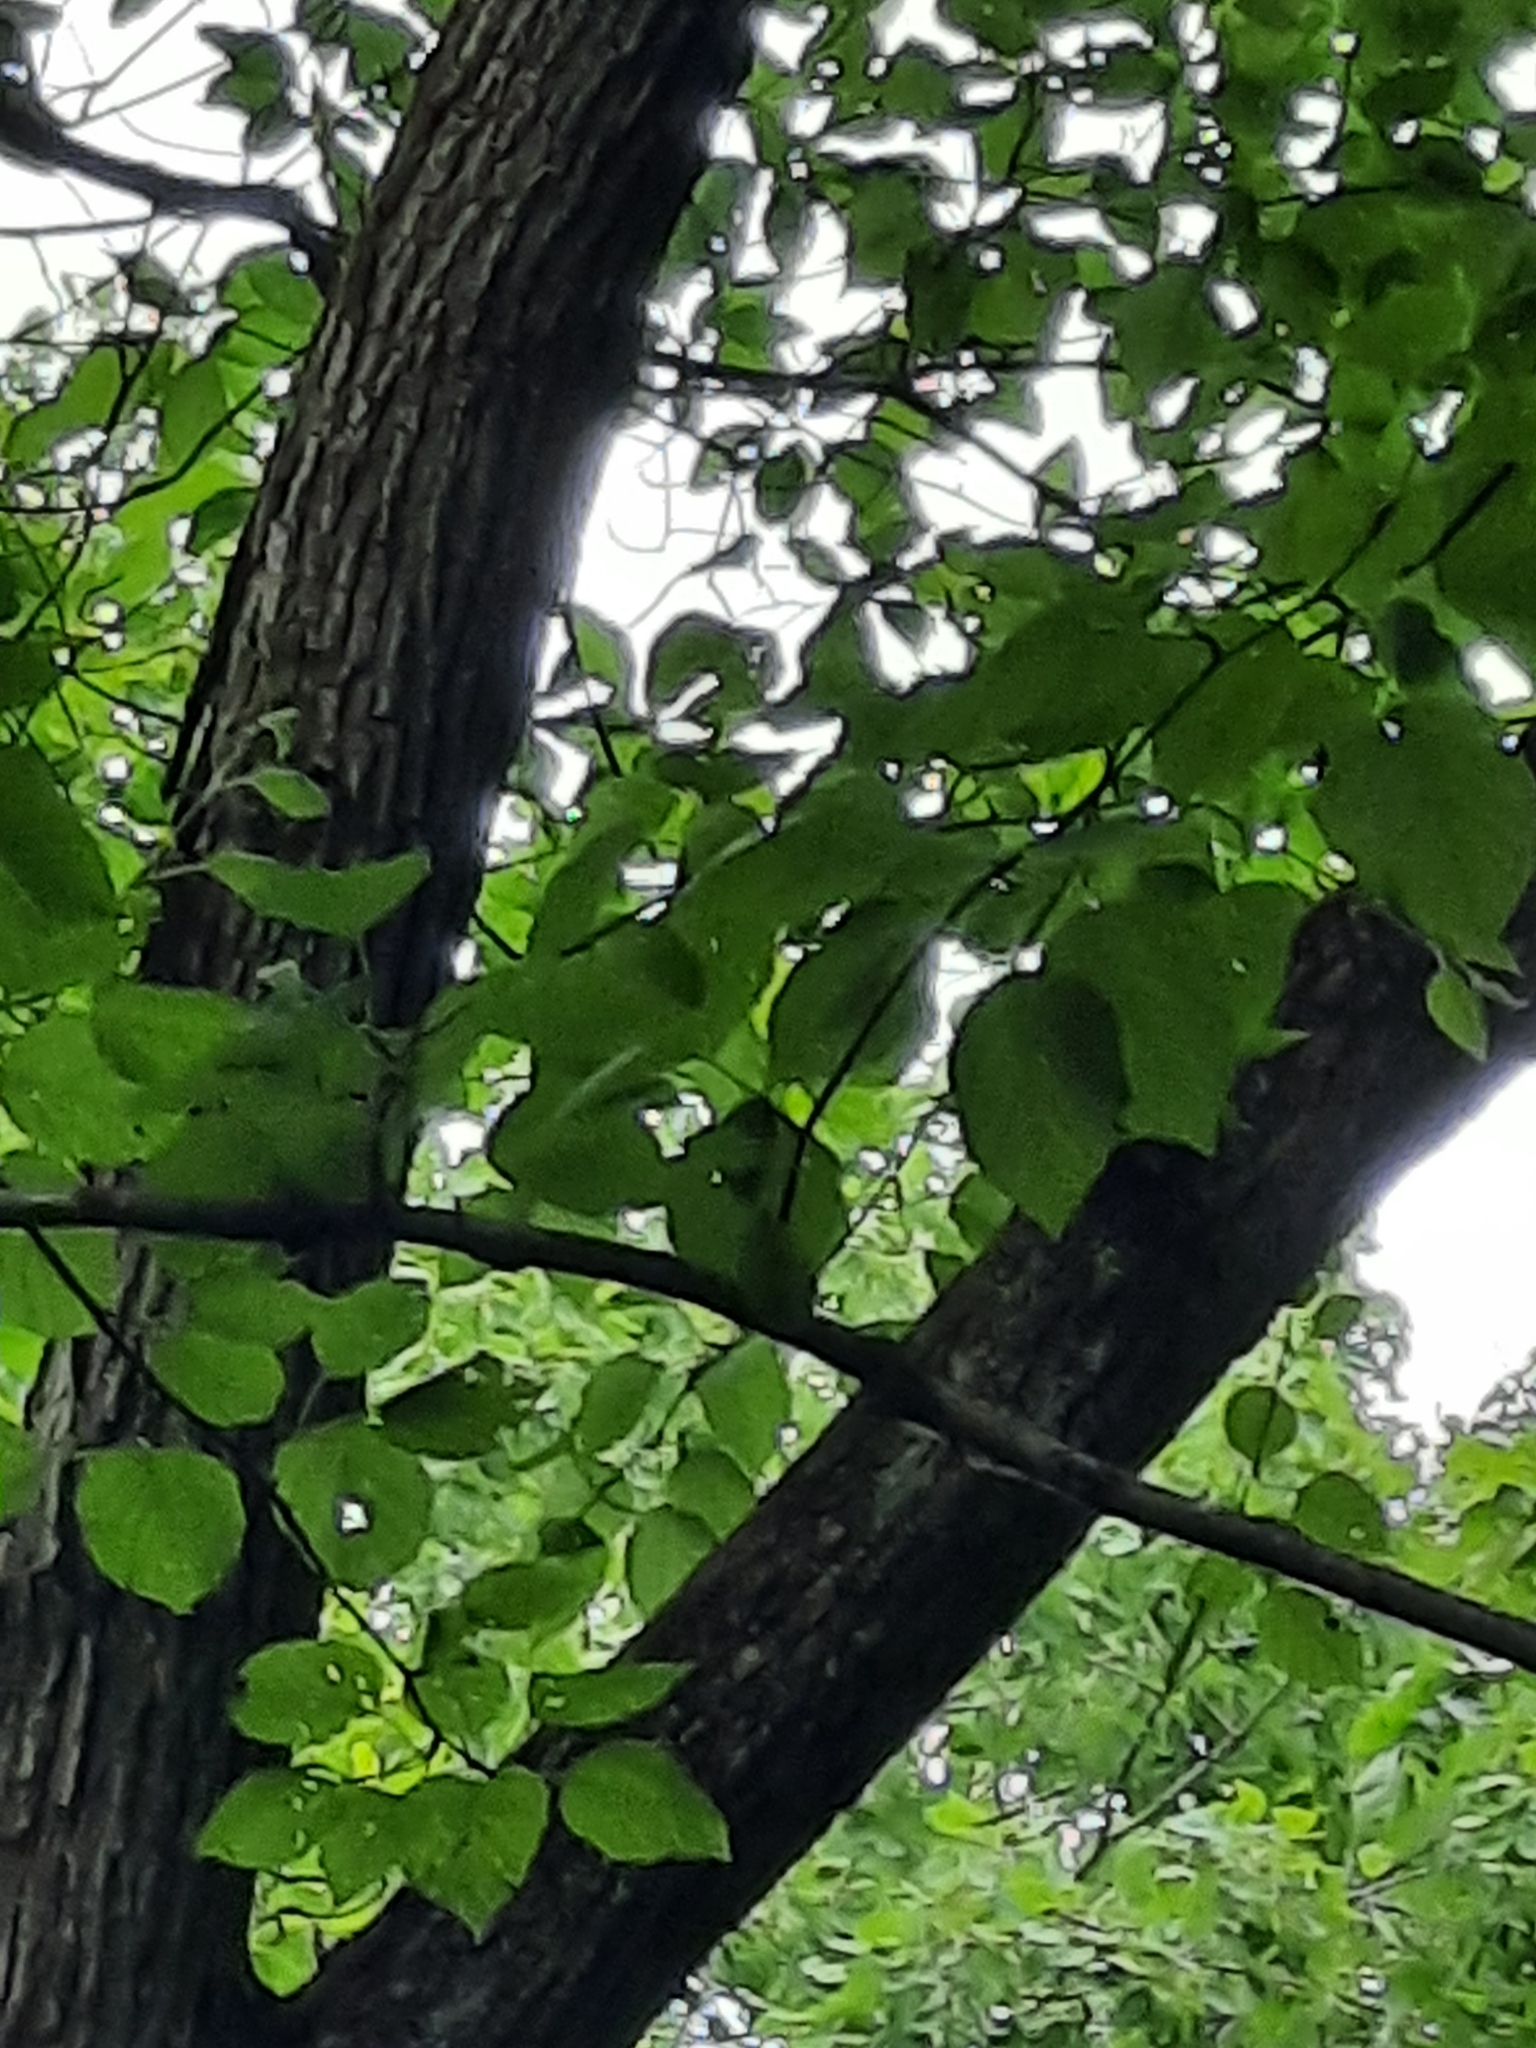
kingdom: Plantae
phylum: Tracheophyta
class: Magnoliopsida
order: Fagales
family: Betulaceae
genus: Betula
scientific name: Betula papyrifera
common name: Paper birch
